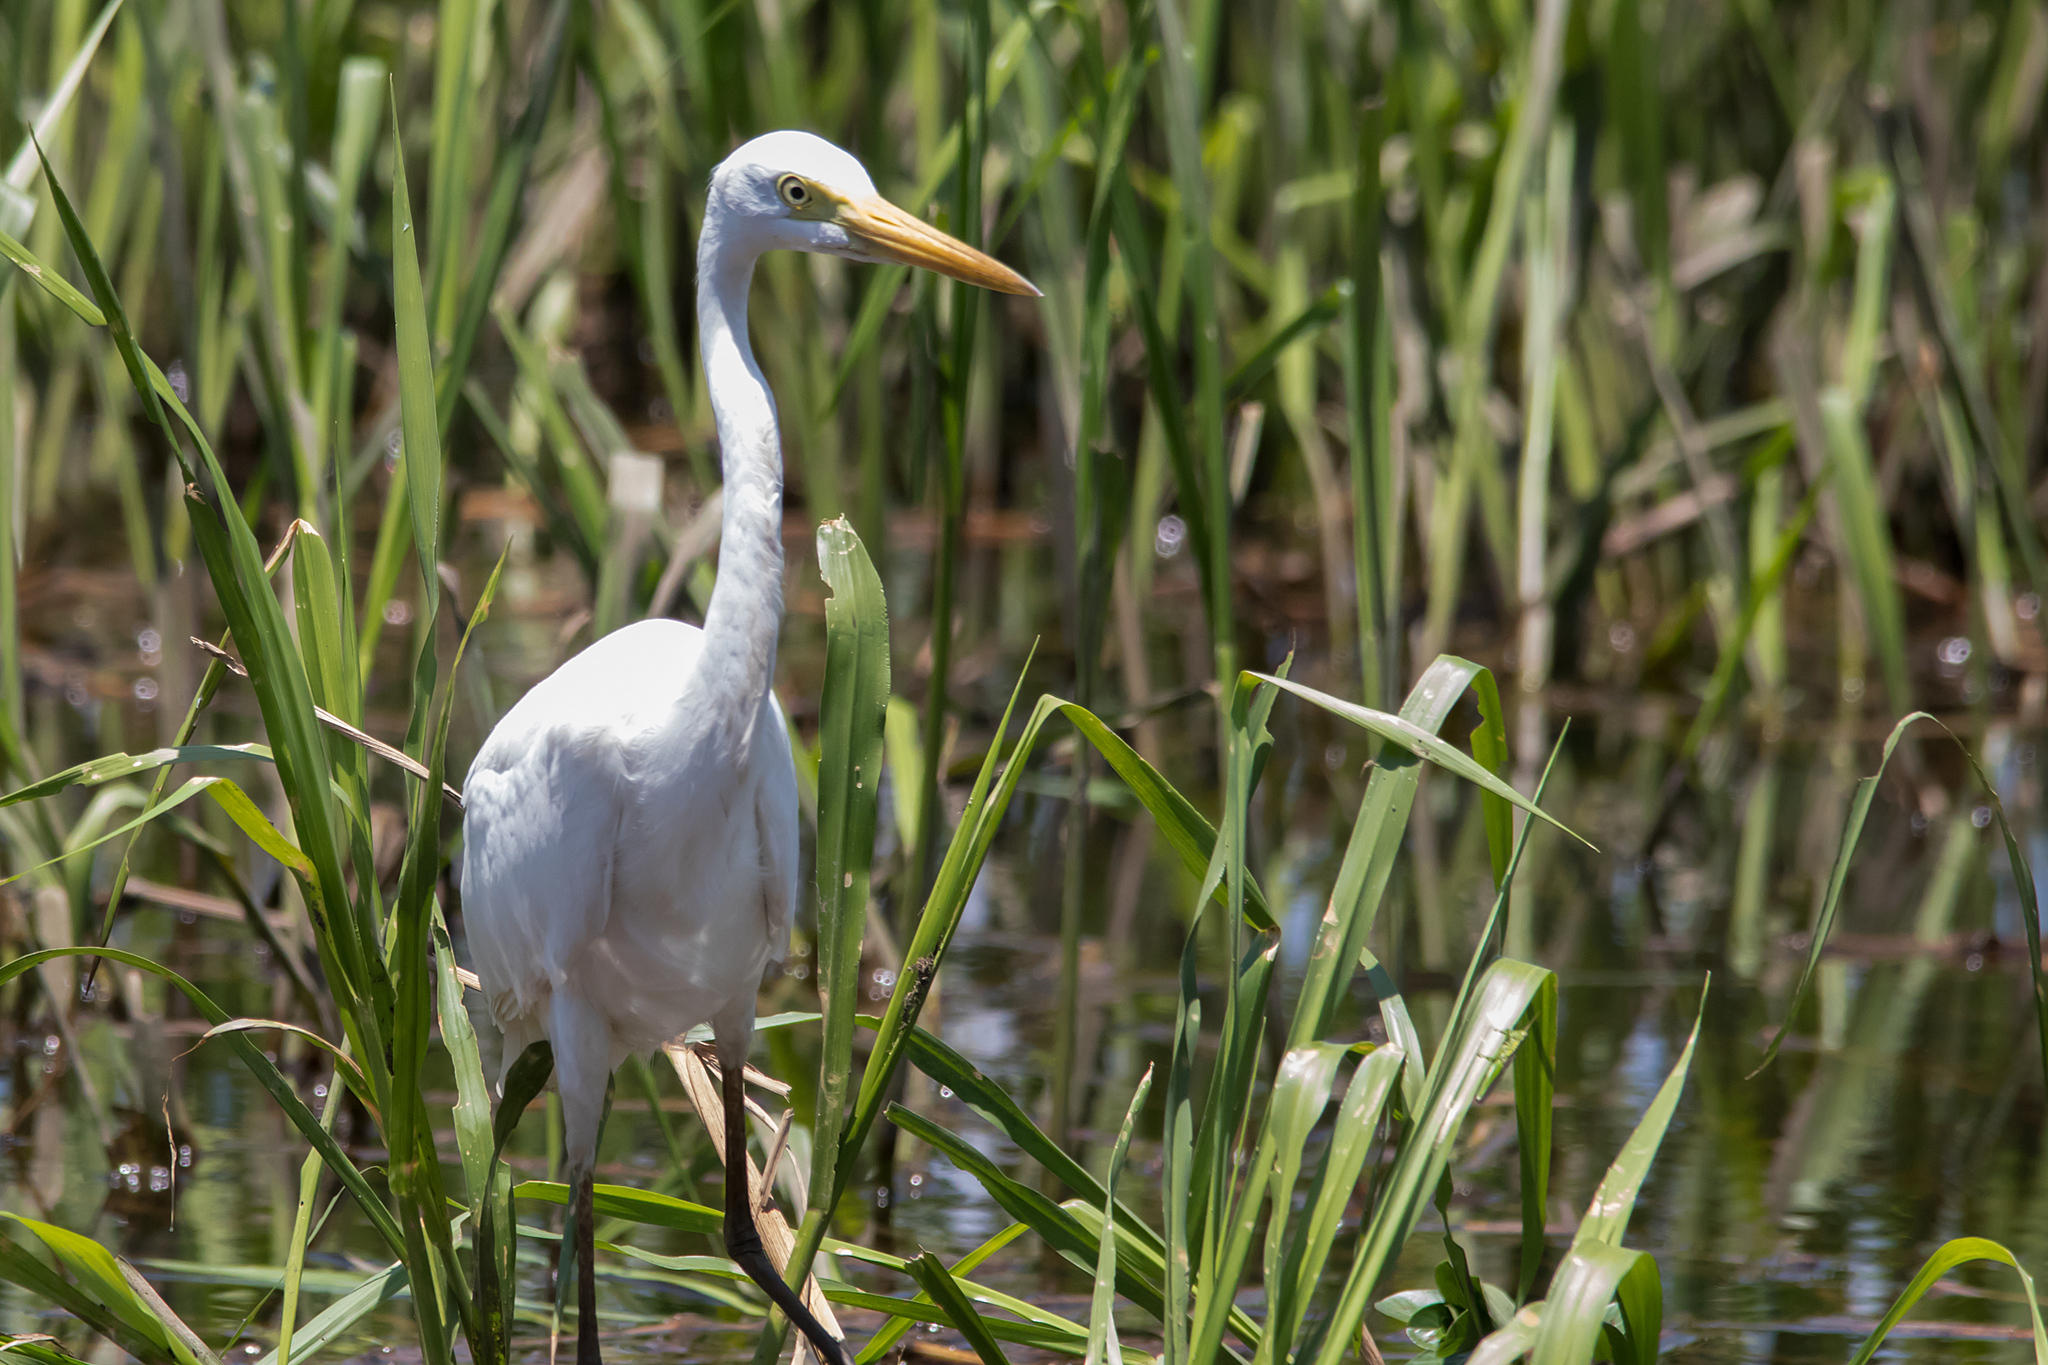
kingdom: Animalia
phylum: Chordata
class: Aves
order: Pelecaniformes
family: Ardeidae
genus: Egretta
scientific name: Egretta intermedia
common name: Intermediate egret
